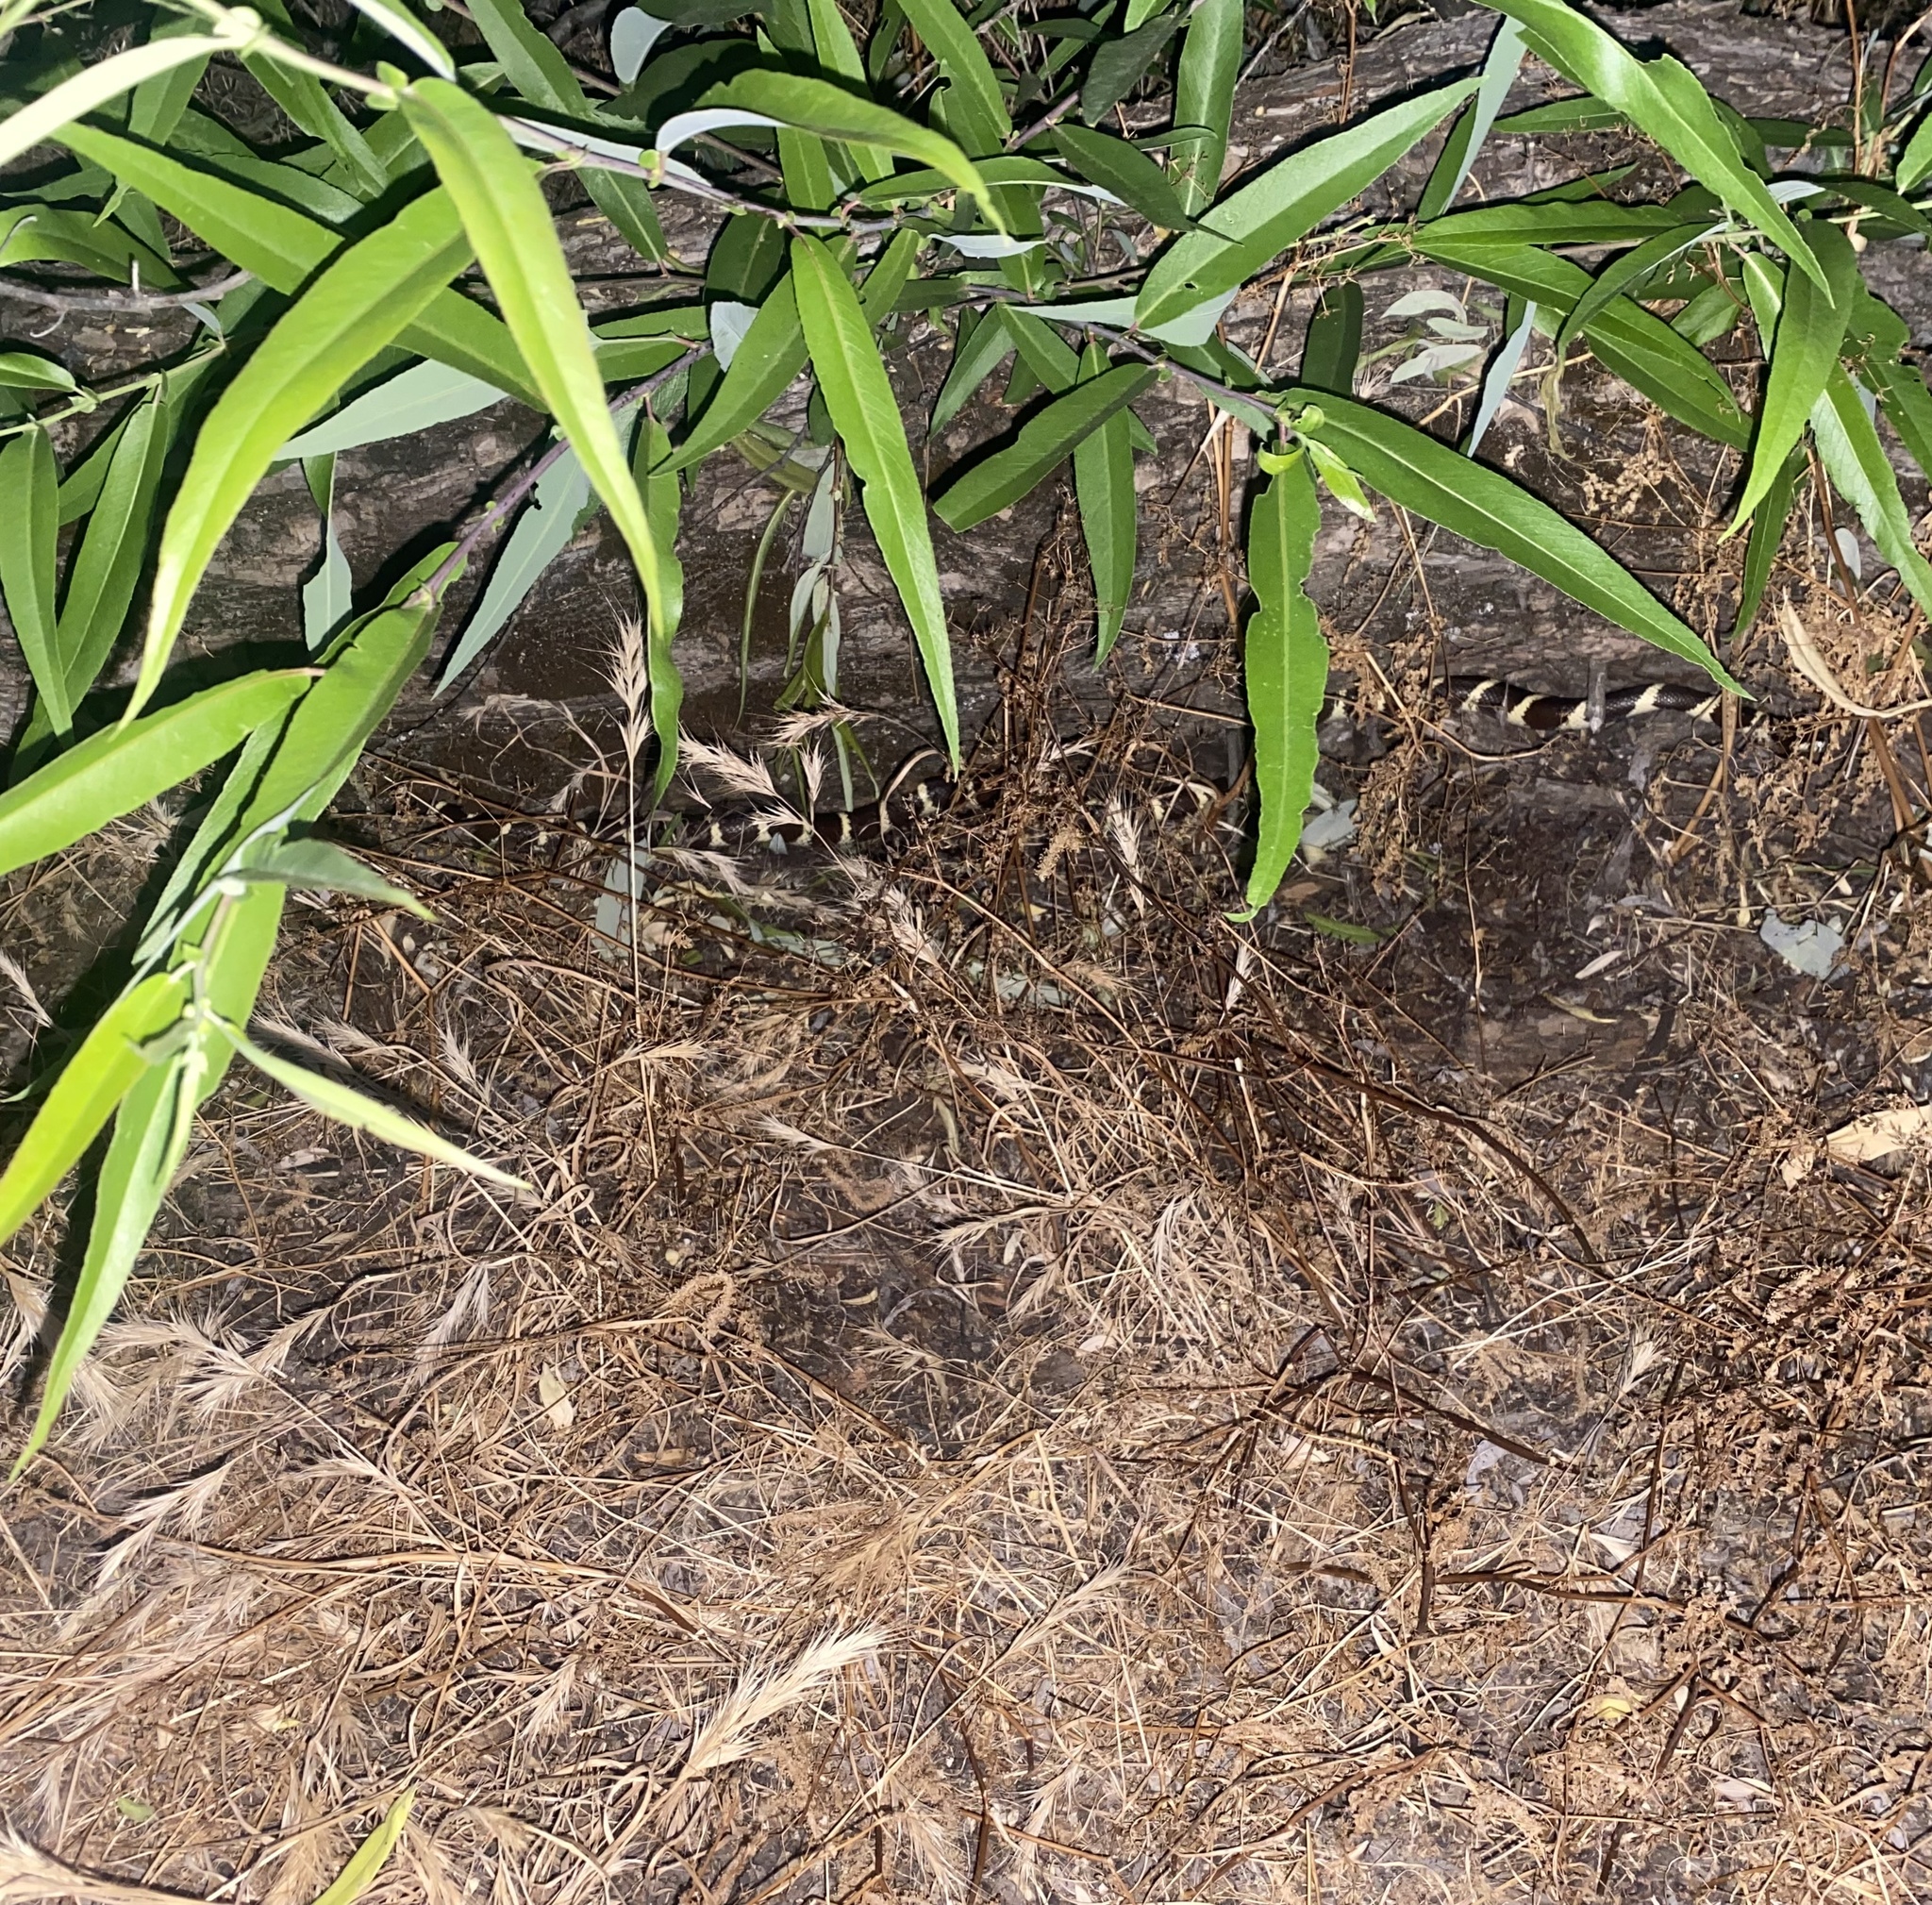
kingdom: Animalia
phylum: Chordata
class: Squamata
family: Colubridae
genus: Lampropeltis
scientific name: Lampropeltis californiae
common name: California kingsnake
